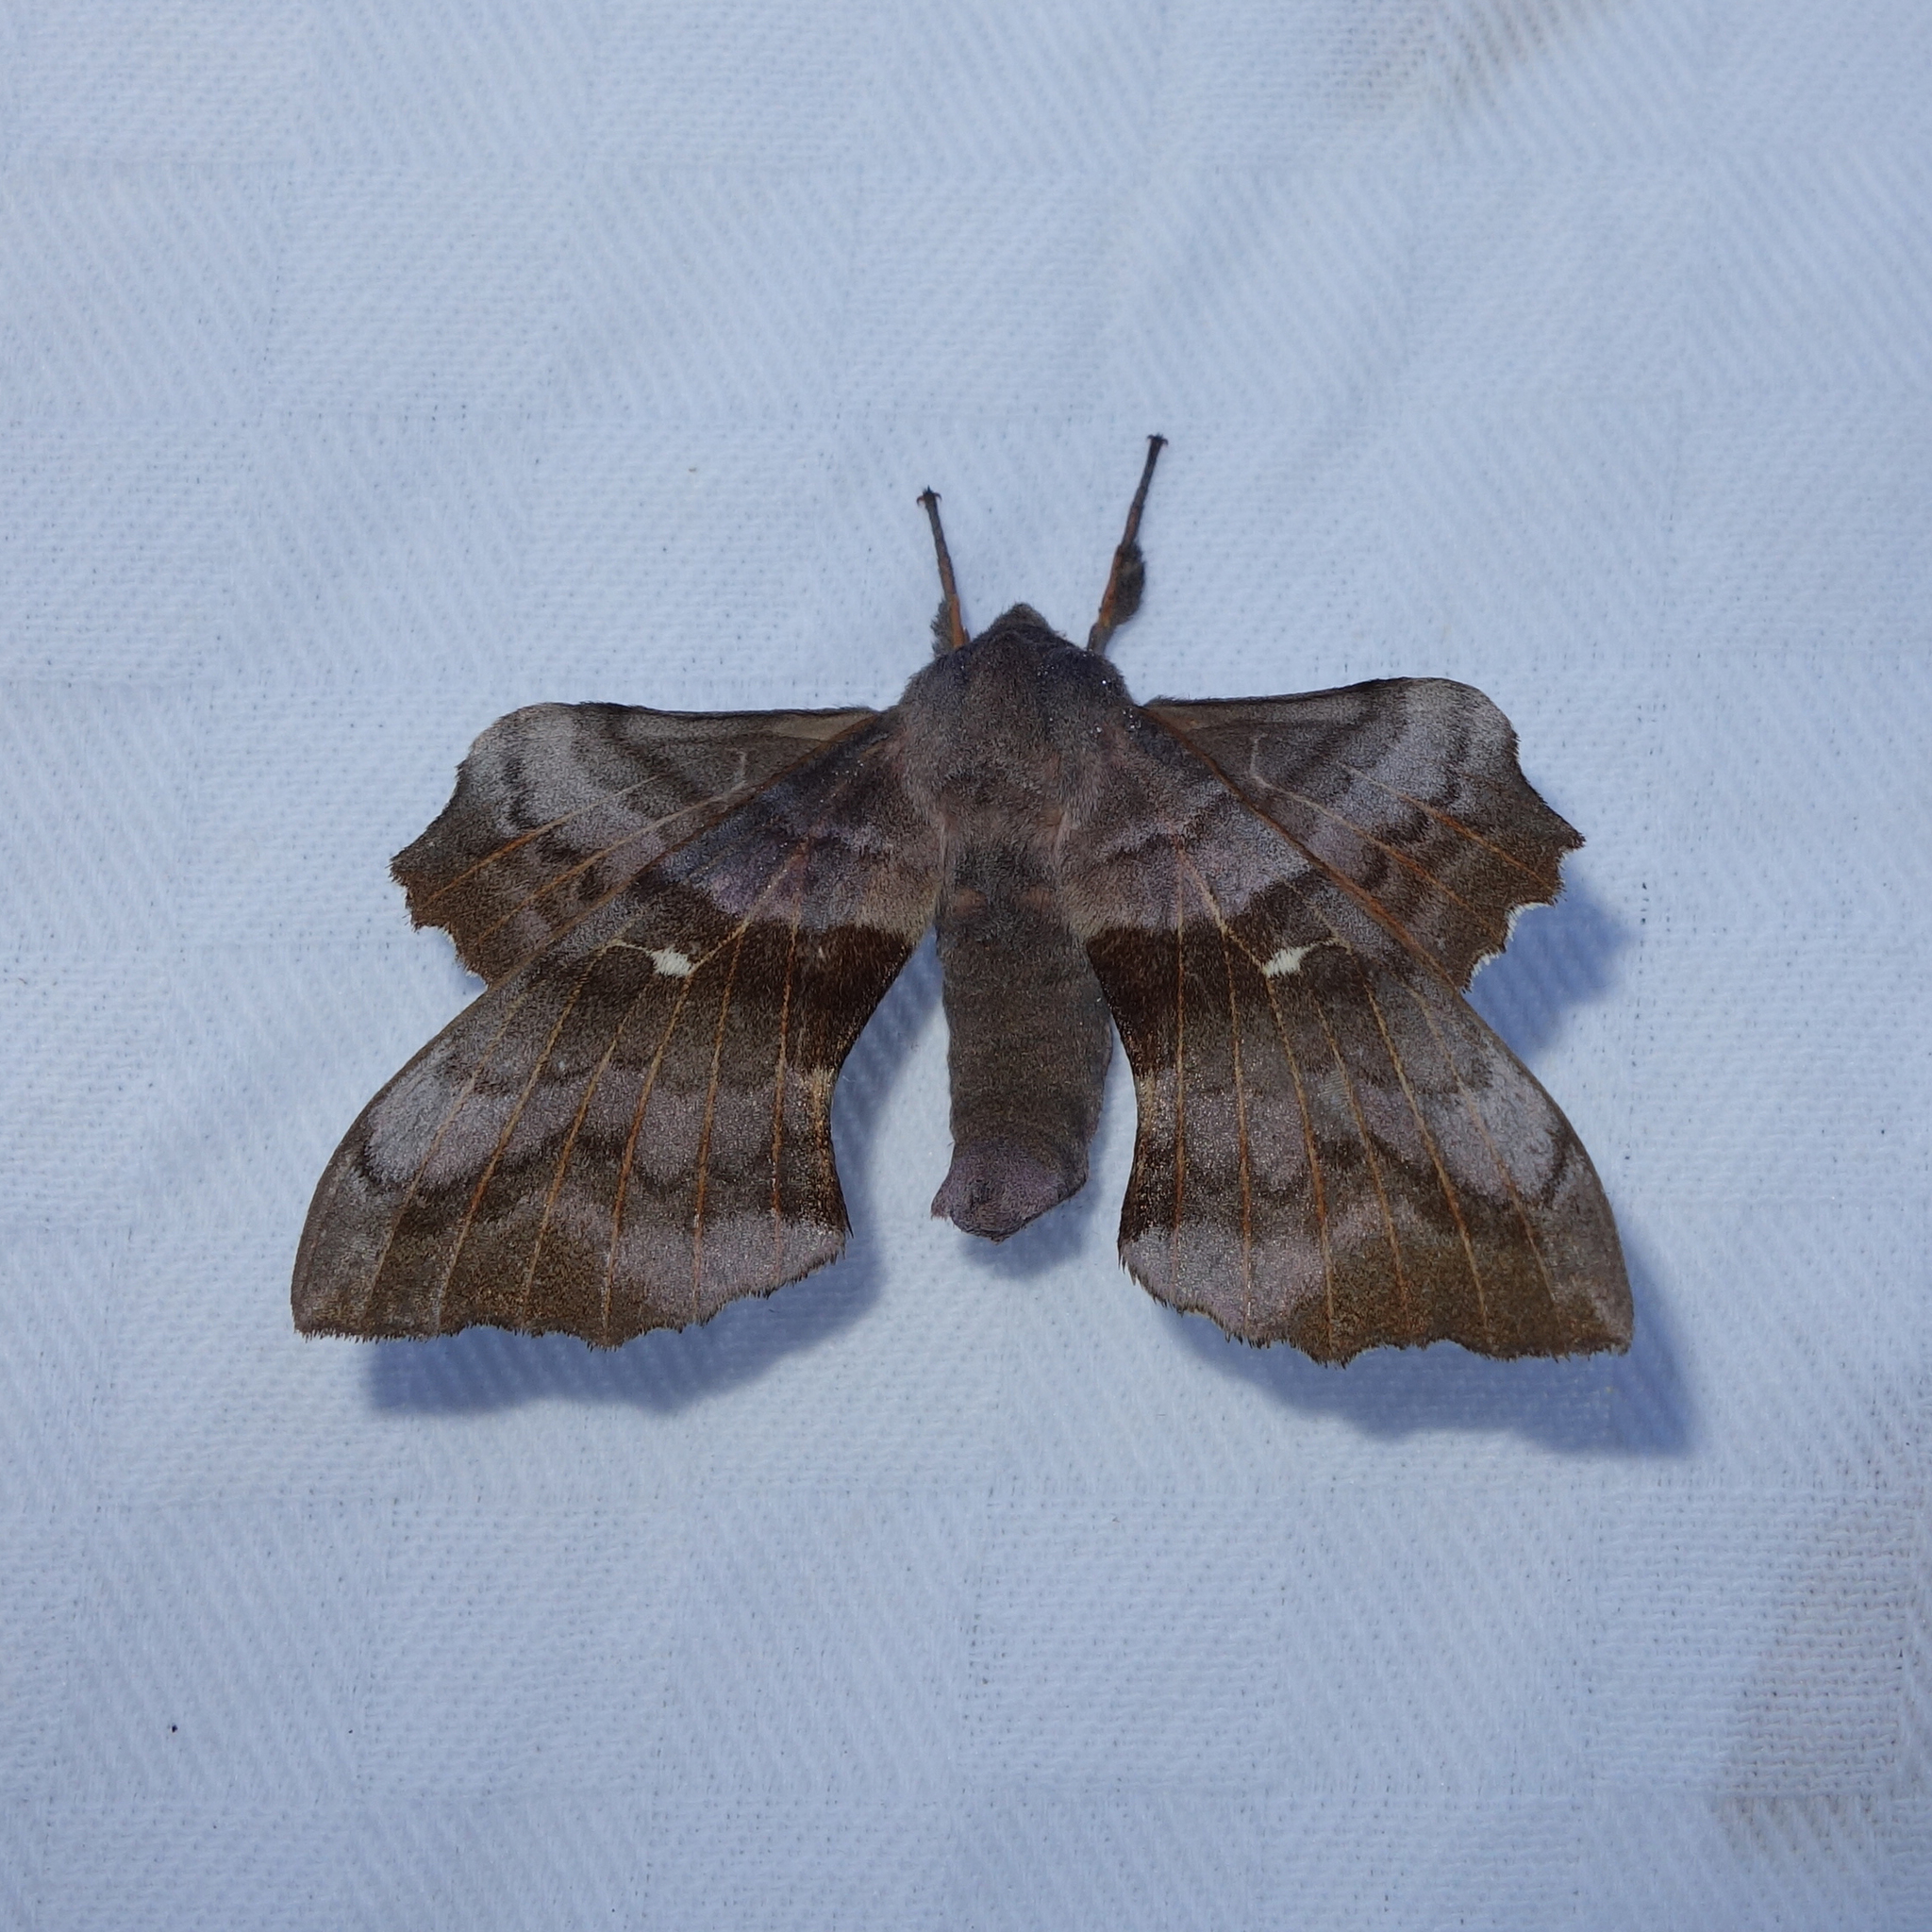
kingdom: Animalia
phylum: Arthropoda
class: Insecta
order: Lepidoptera
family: Sphingidae
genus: Laothoe
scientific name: Laothoe populi
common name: Poplar hawk-moth
